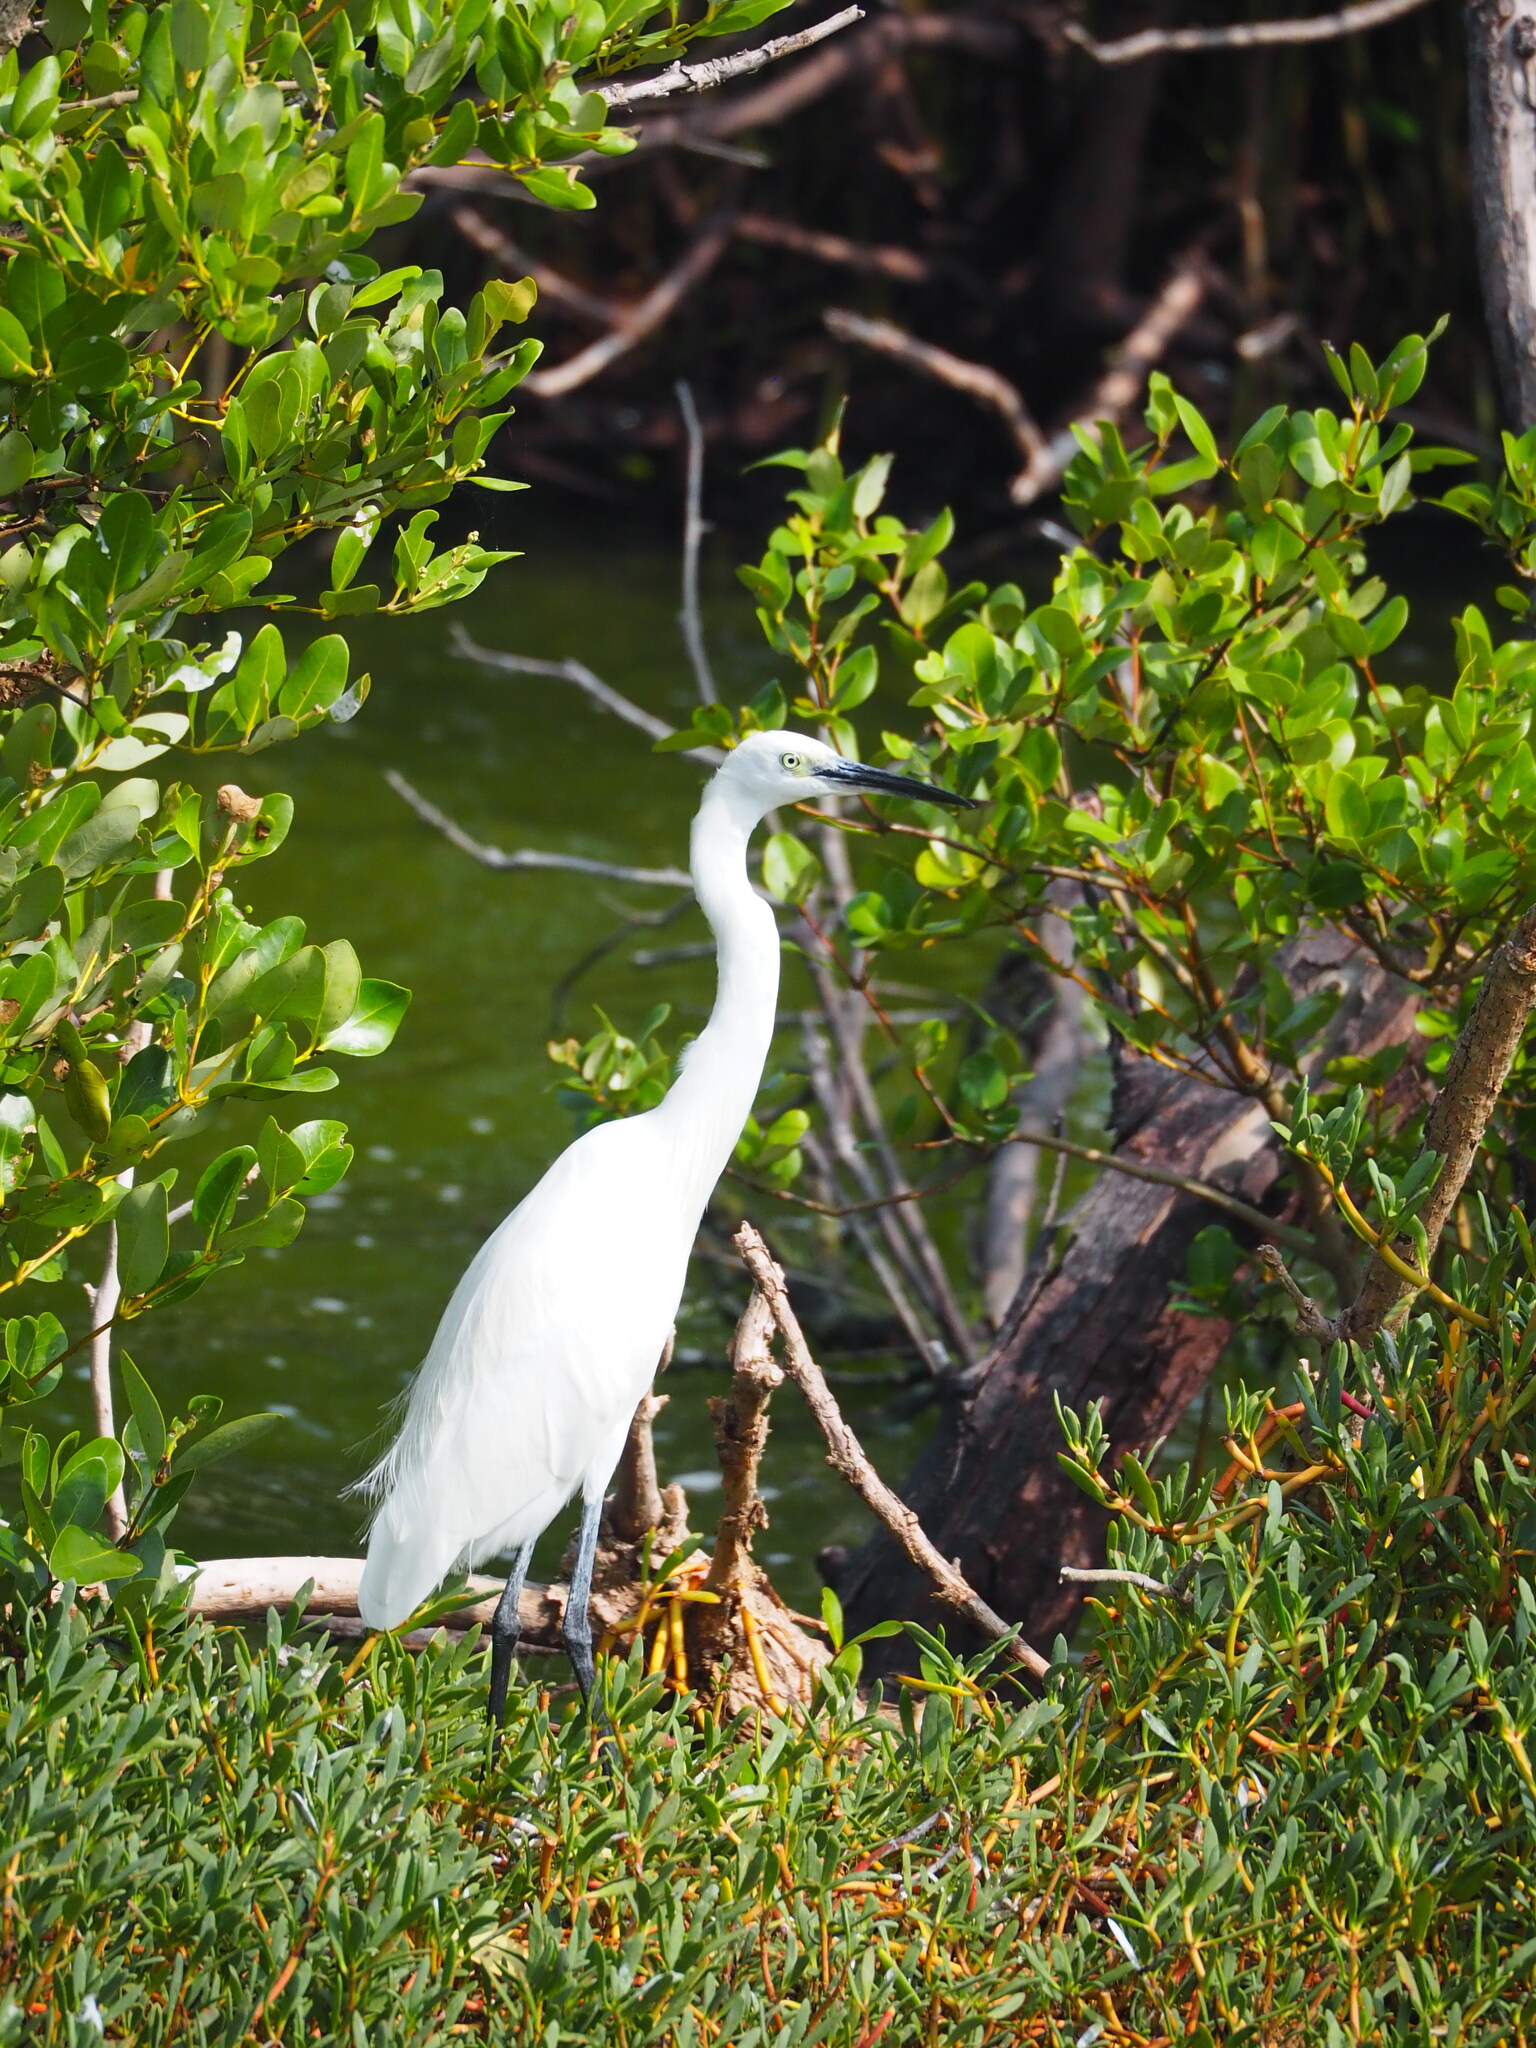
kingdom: Animalia
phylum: Chordata
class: Aves
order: Pelecaniformes
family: Ardeidae
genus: Egretta
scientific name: Egretta garzetta
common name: Little egret
